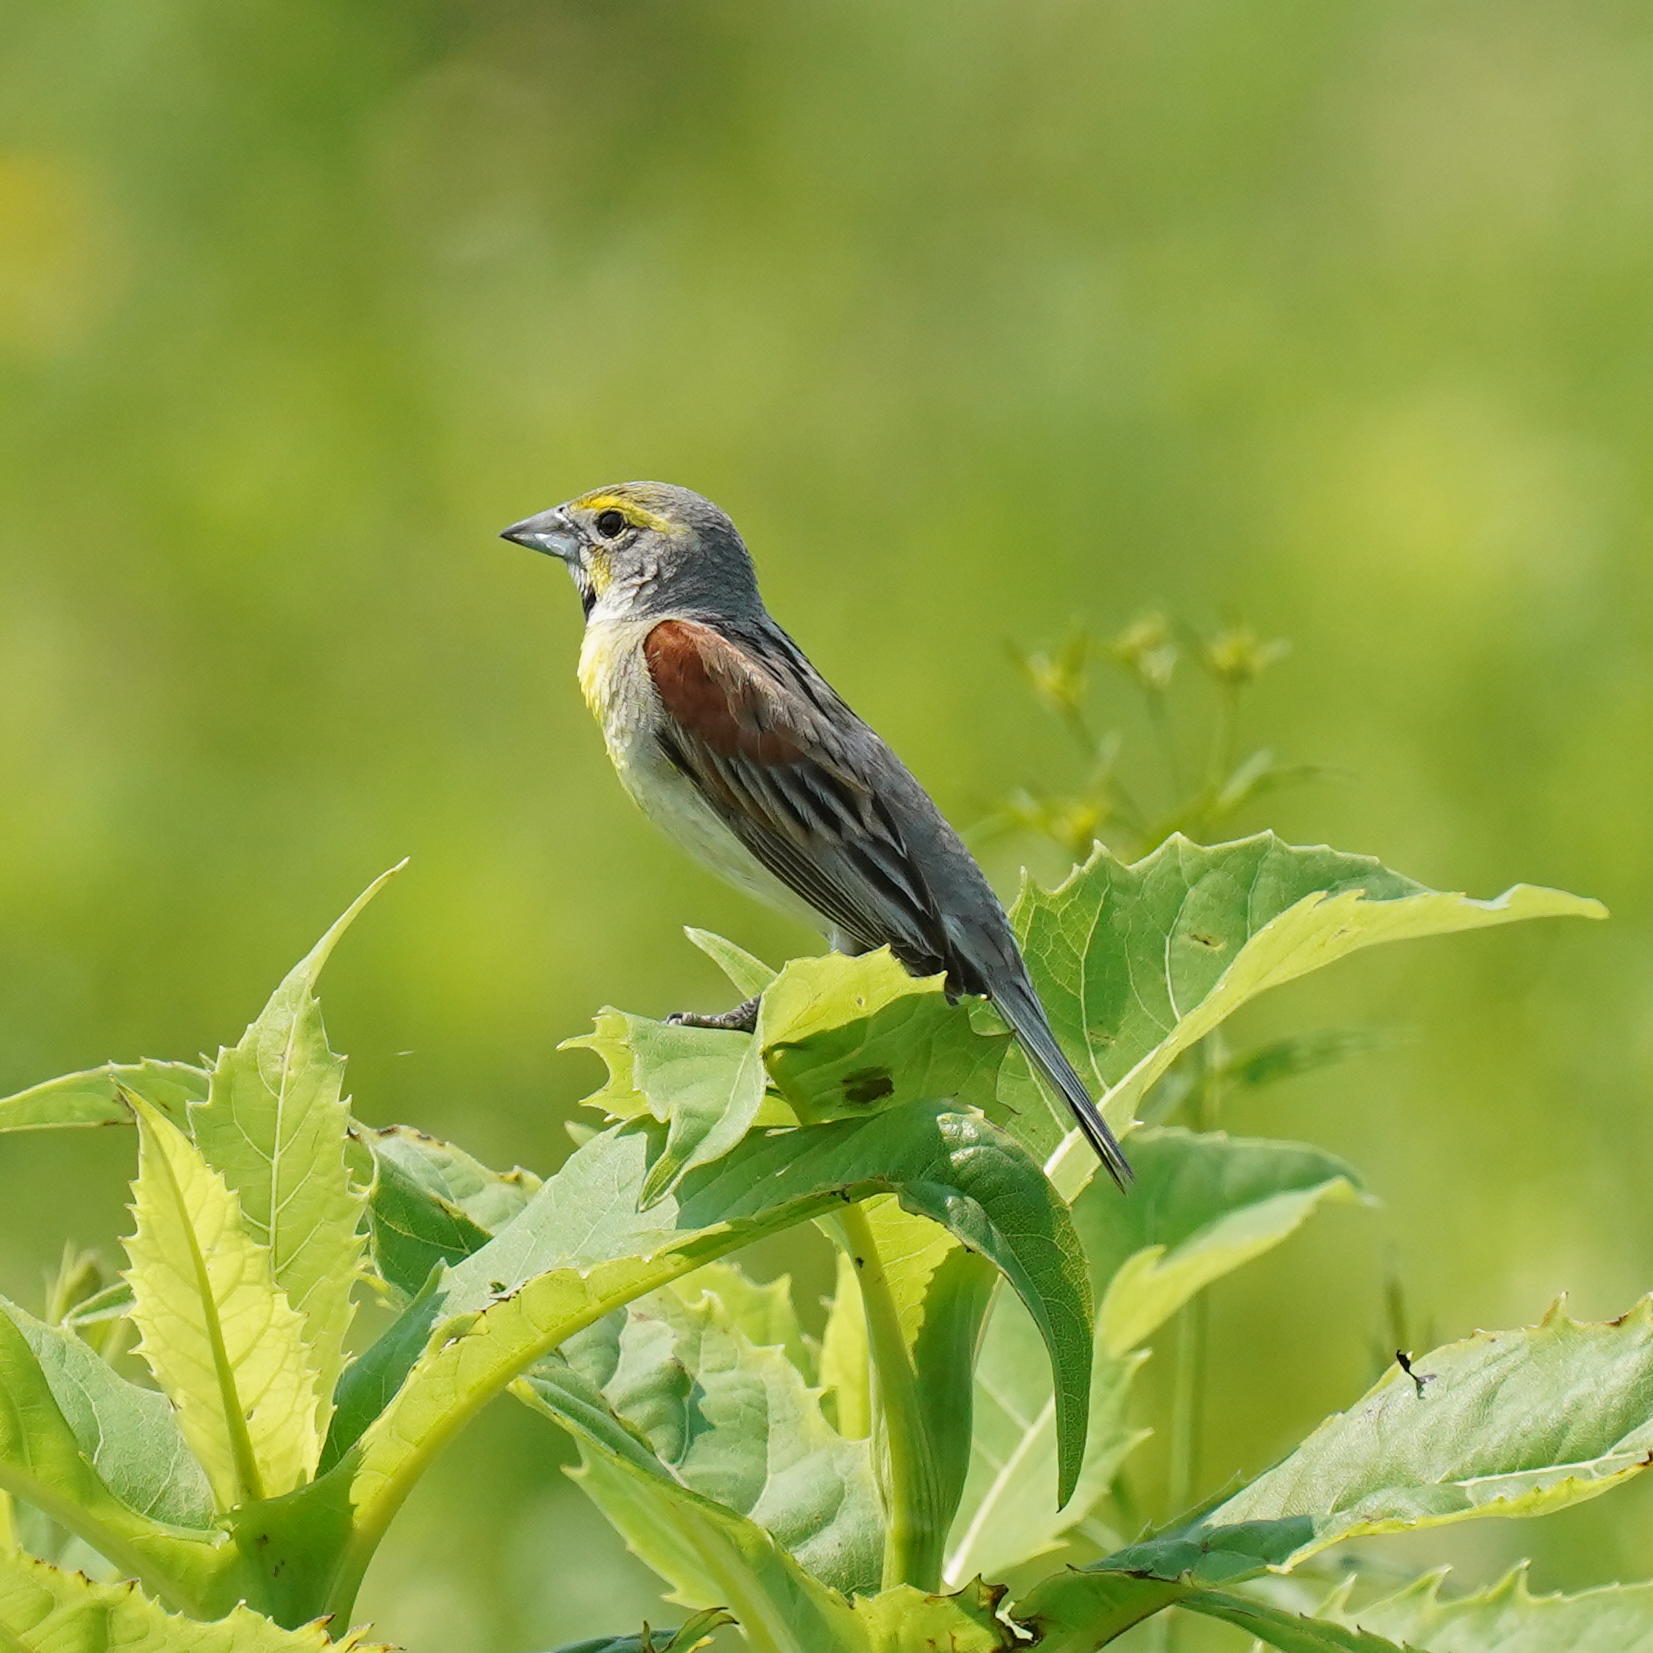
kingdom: Animalia
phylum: Chordata
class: Aves
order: Passeriformes
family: Cardinalidae
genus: Spiza
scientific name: Spiza americana
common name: Dickcissel
